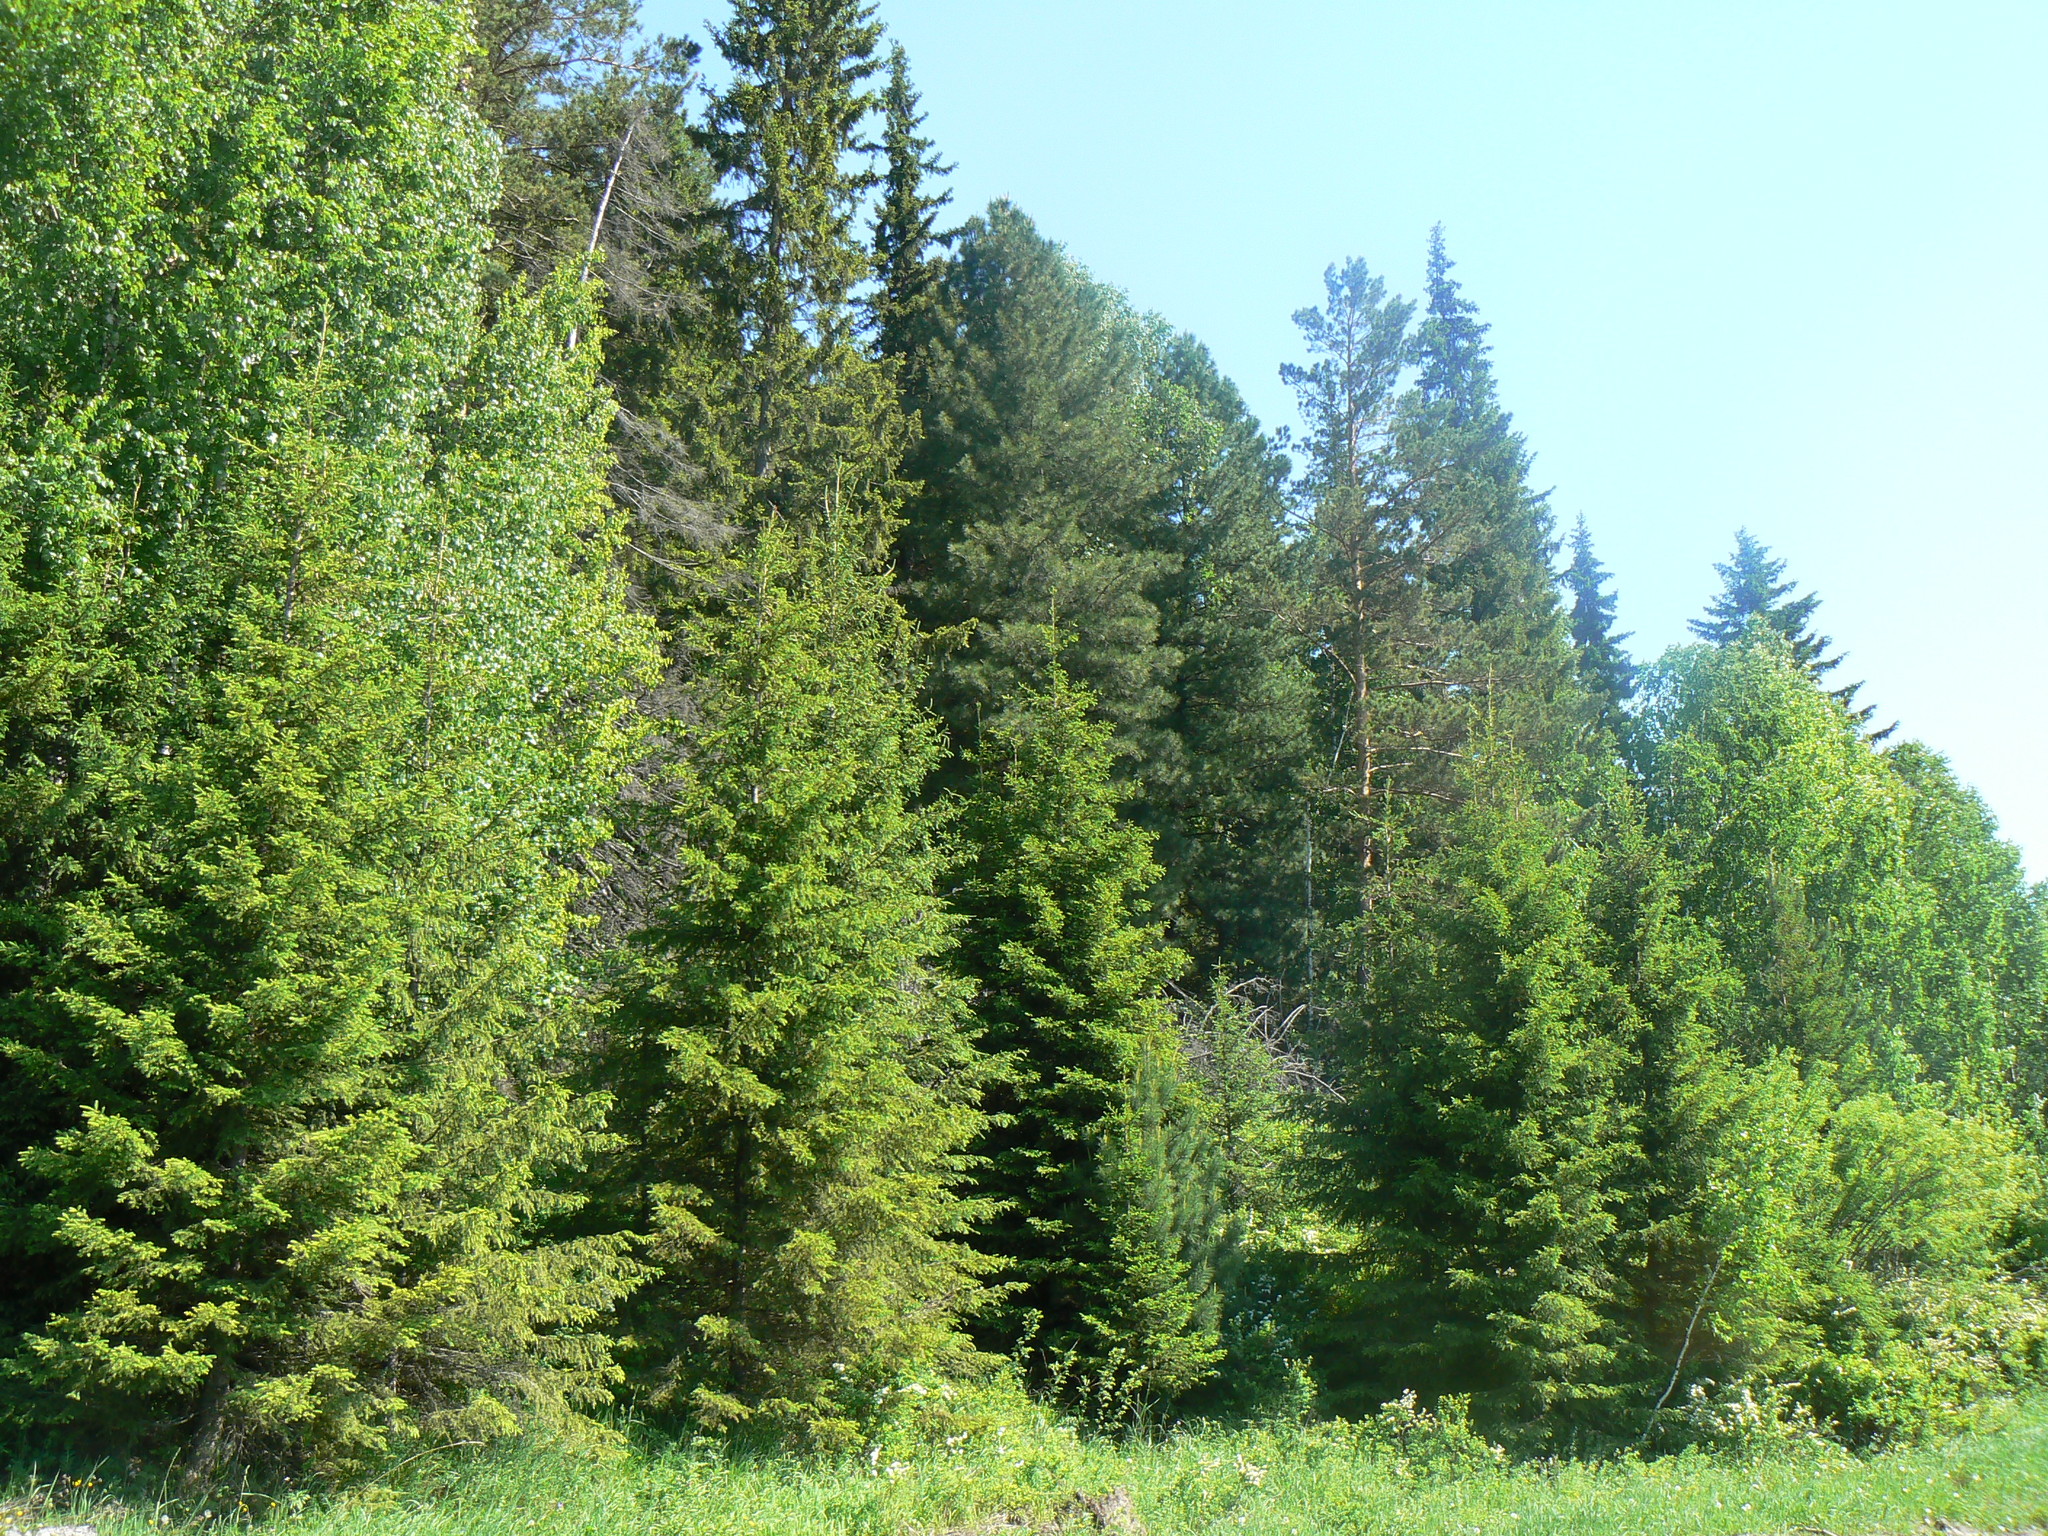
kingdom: Plantae
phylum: Tracheophyta
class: Pinopsida
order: Pinales
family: Pinaceae
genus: Abies
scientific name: Abies sibirica
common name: Siberian fir
